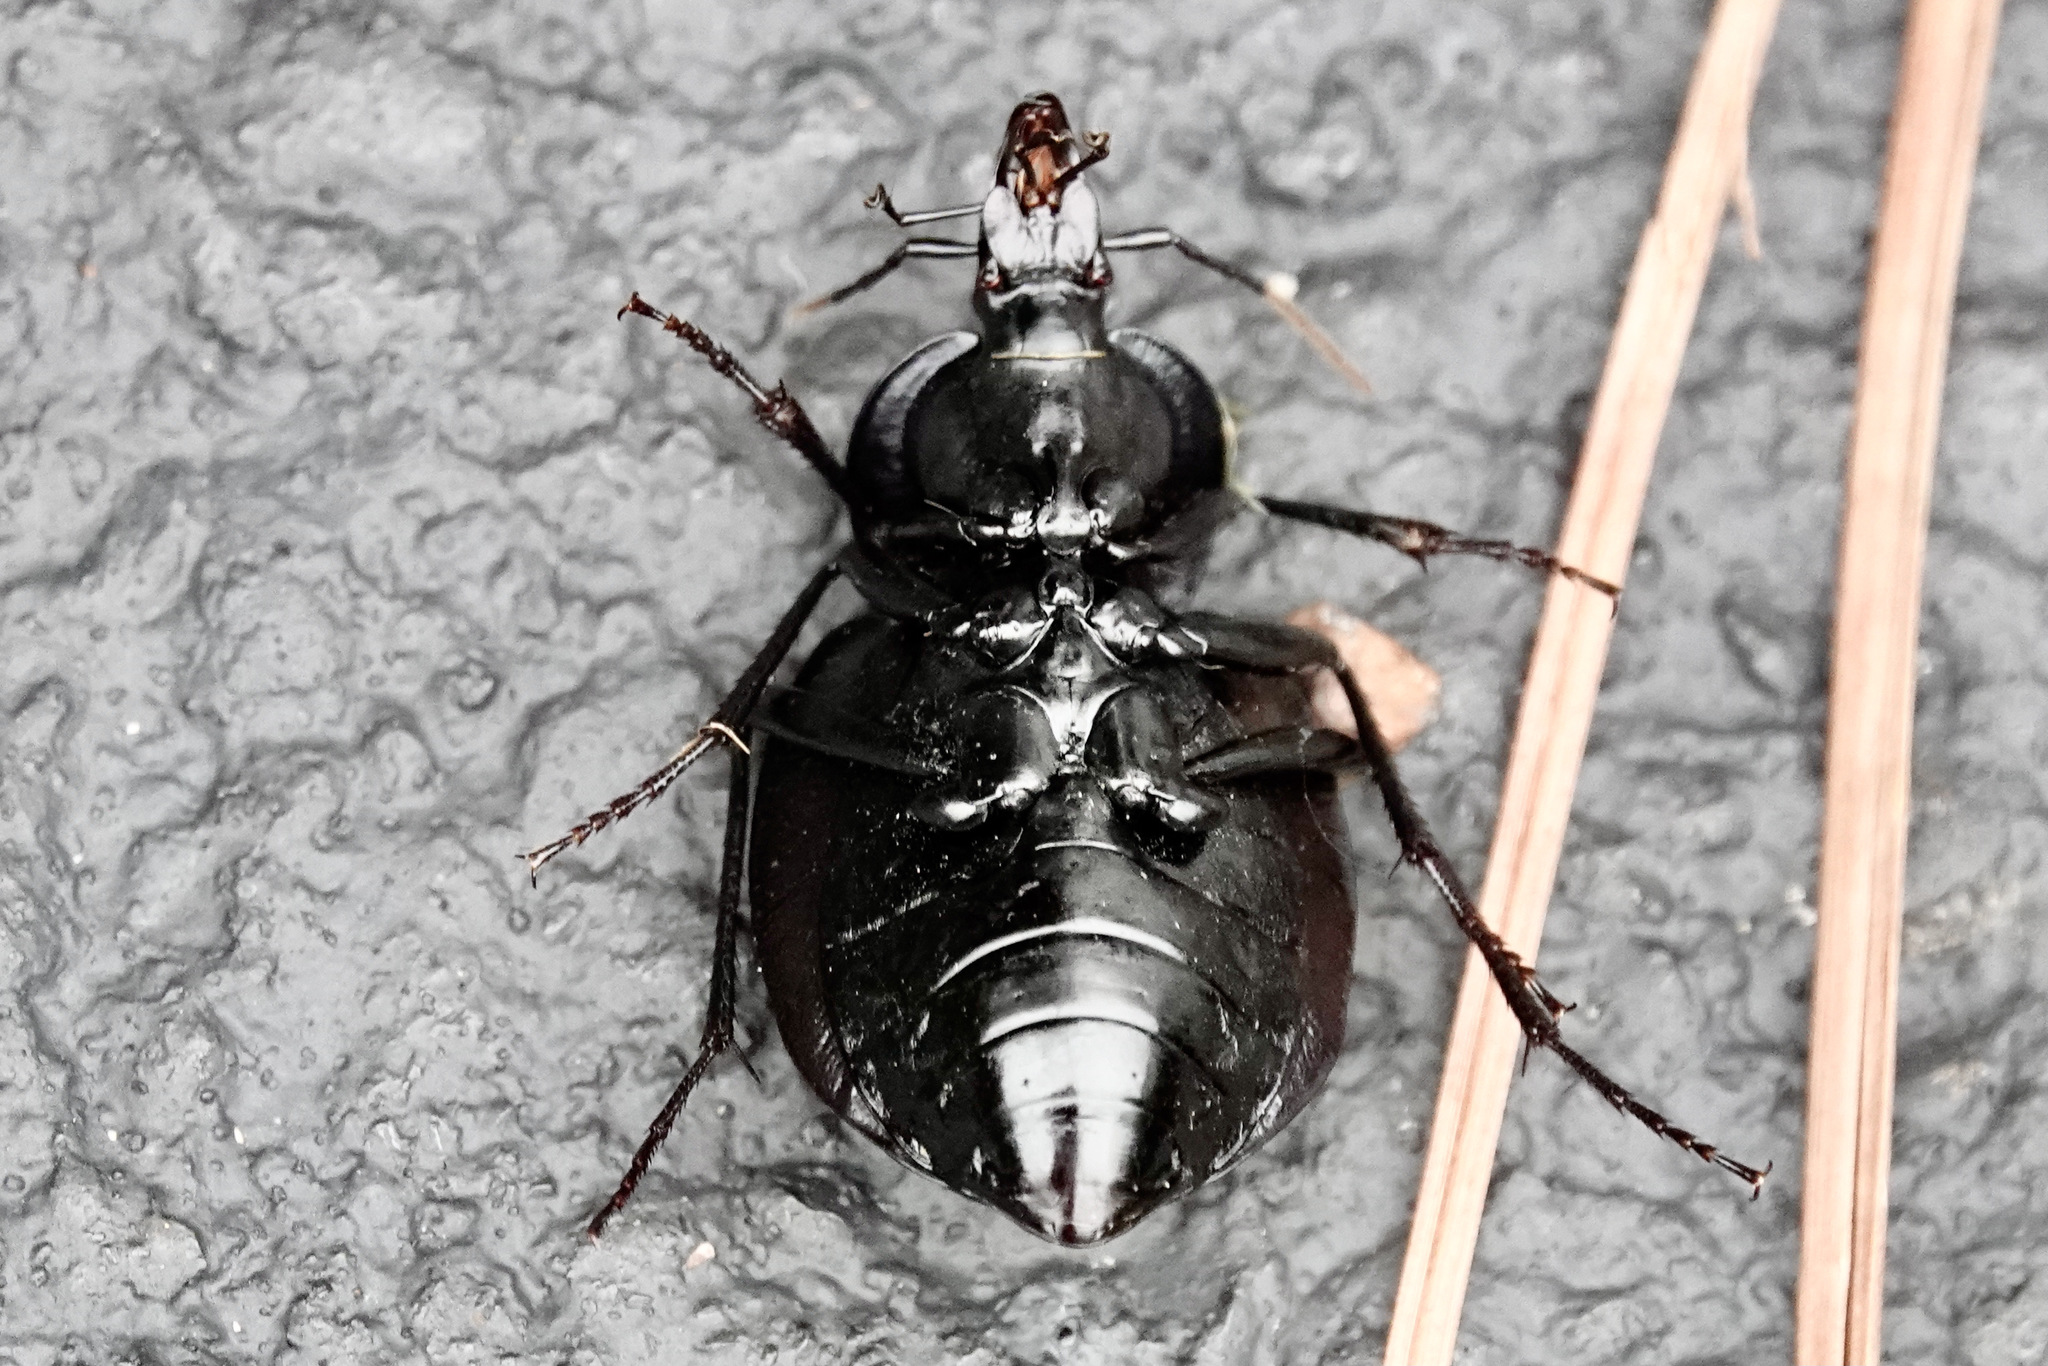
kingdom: Animalia
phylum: Arthropoda
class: Insecta
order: Coleoptera
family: Carabidae
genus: Scaphinotus
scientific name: Scaphinotus unicolor
